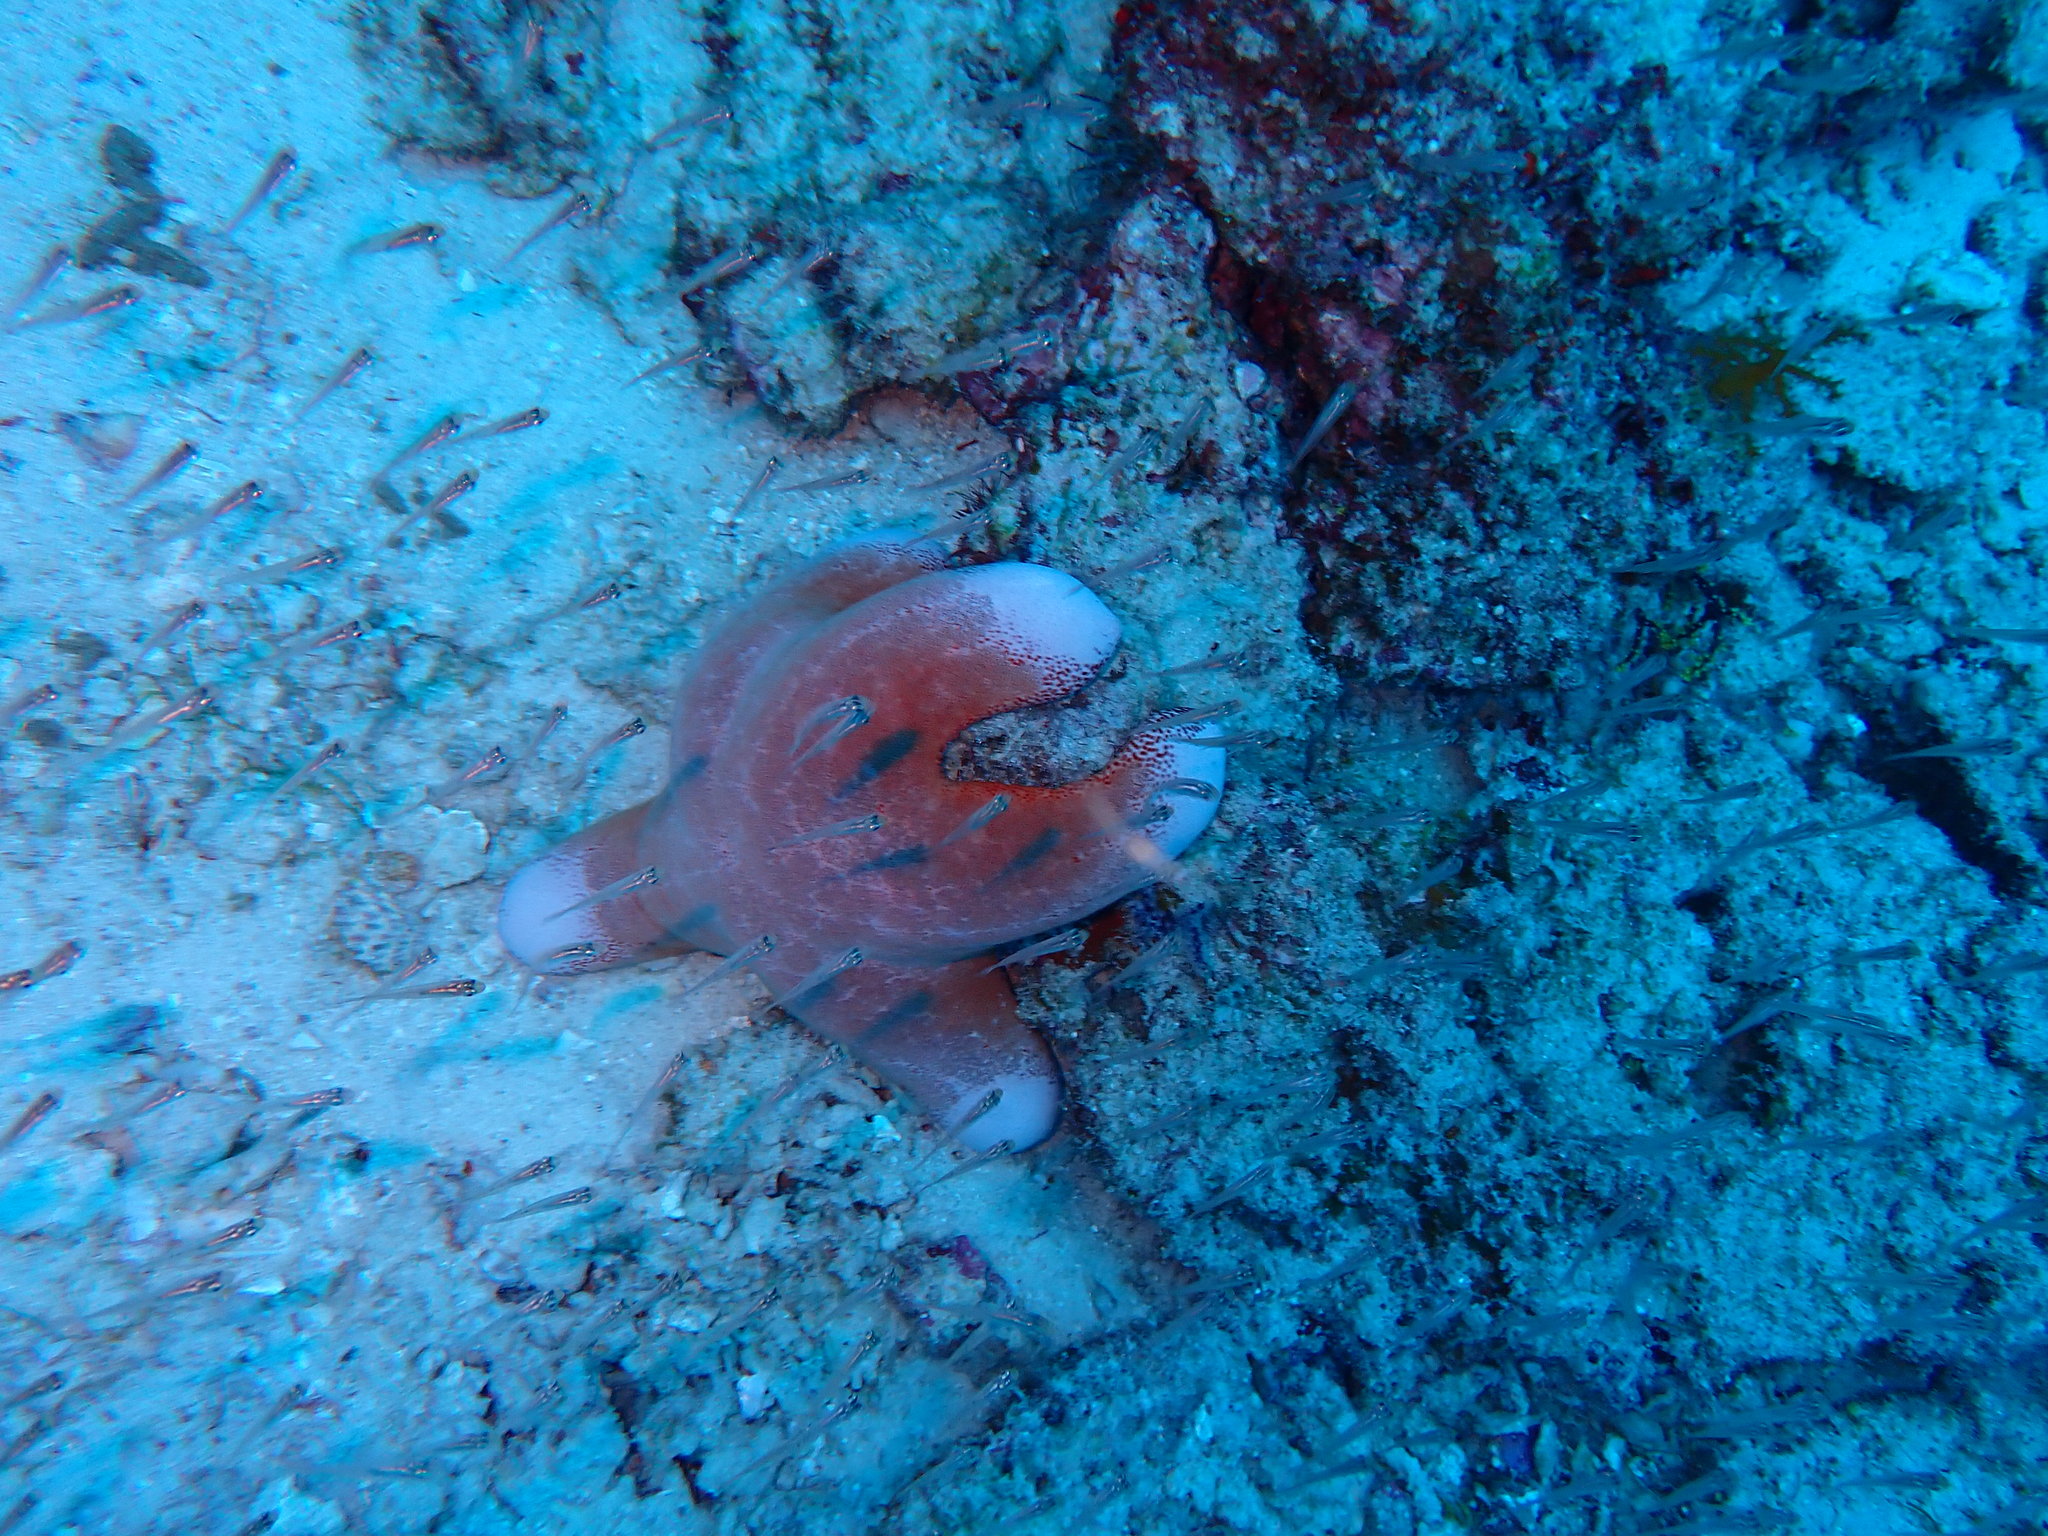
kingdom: Animalia
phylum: Echinodermata
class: Asteroidea
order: Valvatida
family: Oreasteridae
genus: Choriaster
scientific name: Choriaster granulatus
